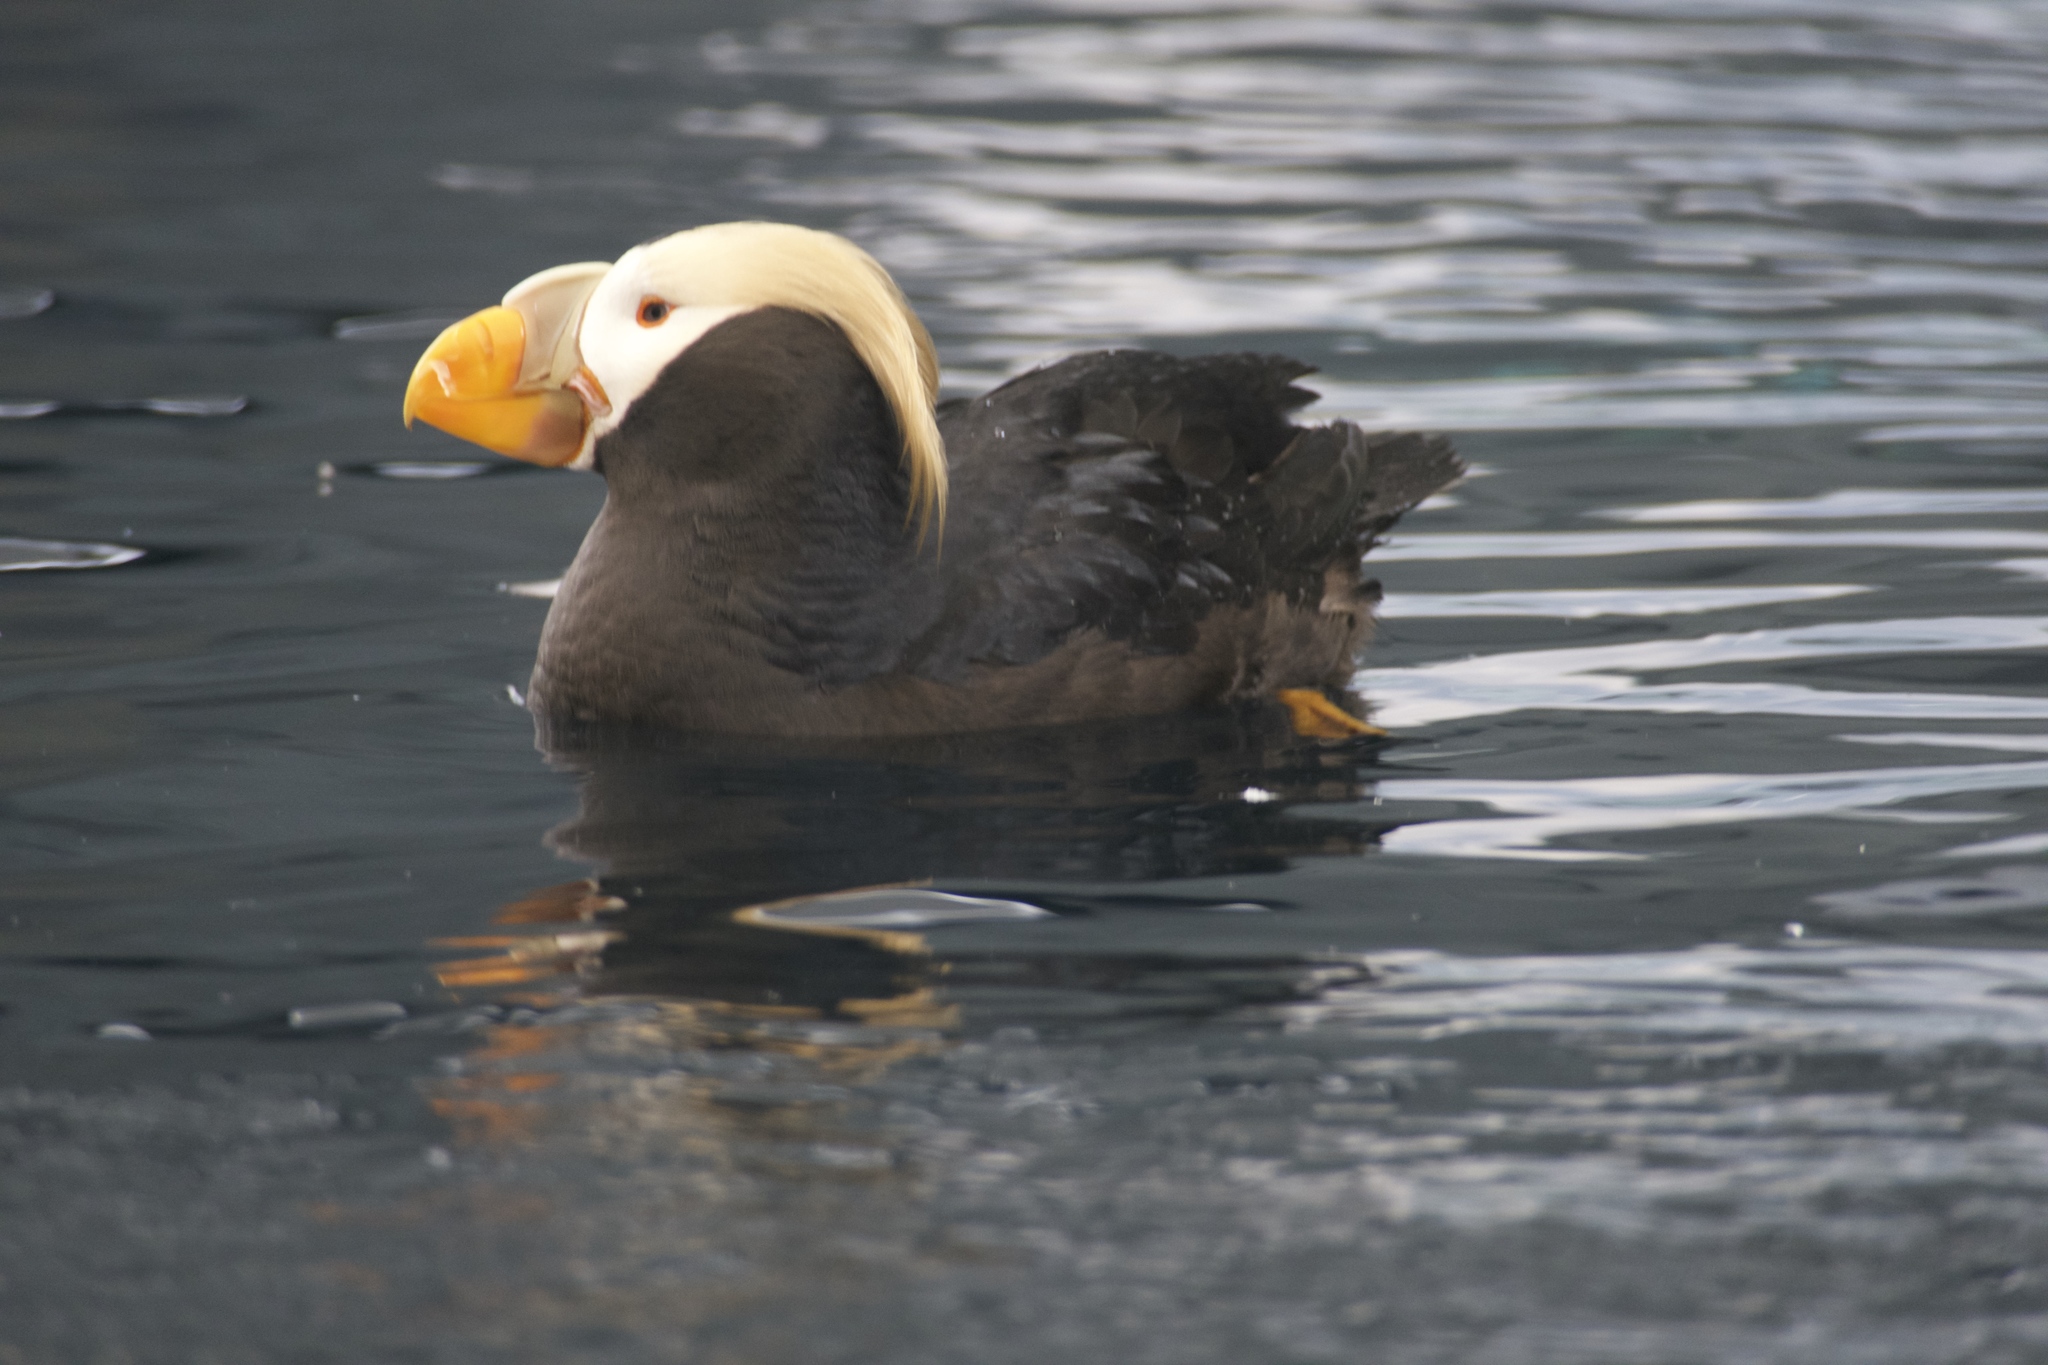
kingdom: Animalia
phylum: Chordata
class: Aves
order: Charadriiformes
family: Alcidae
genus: Fratercula
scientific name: Fratercula cirrhata
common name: Tufted puffin
